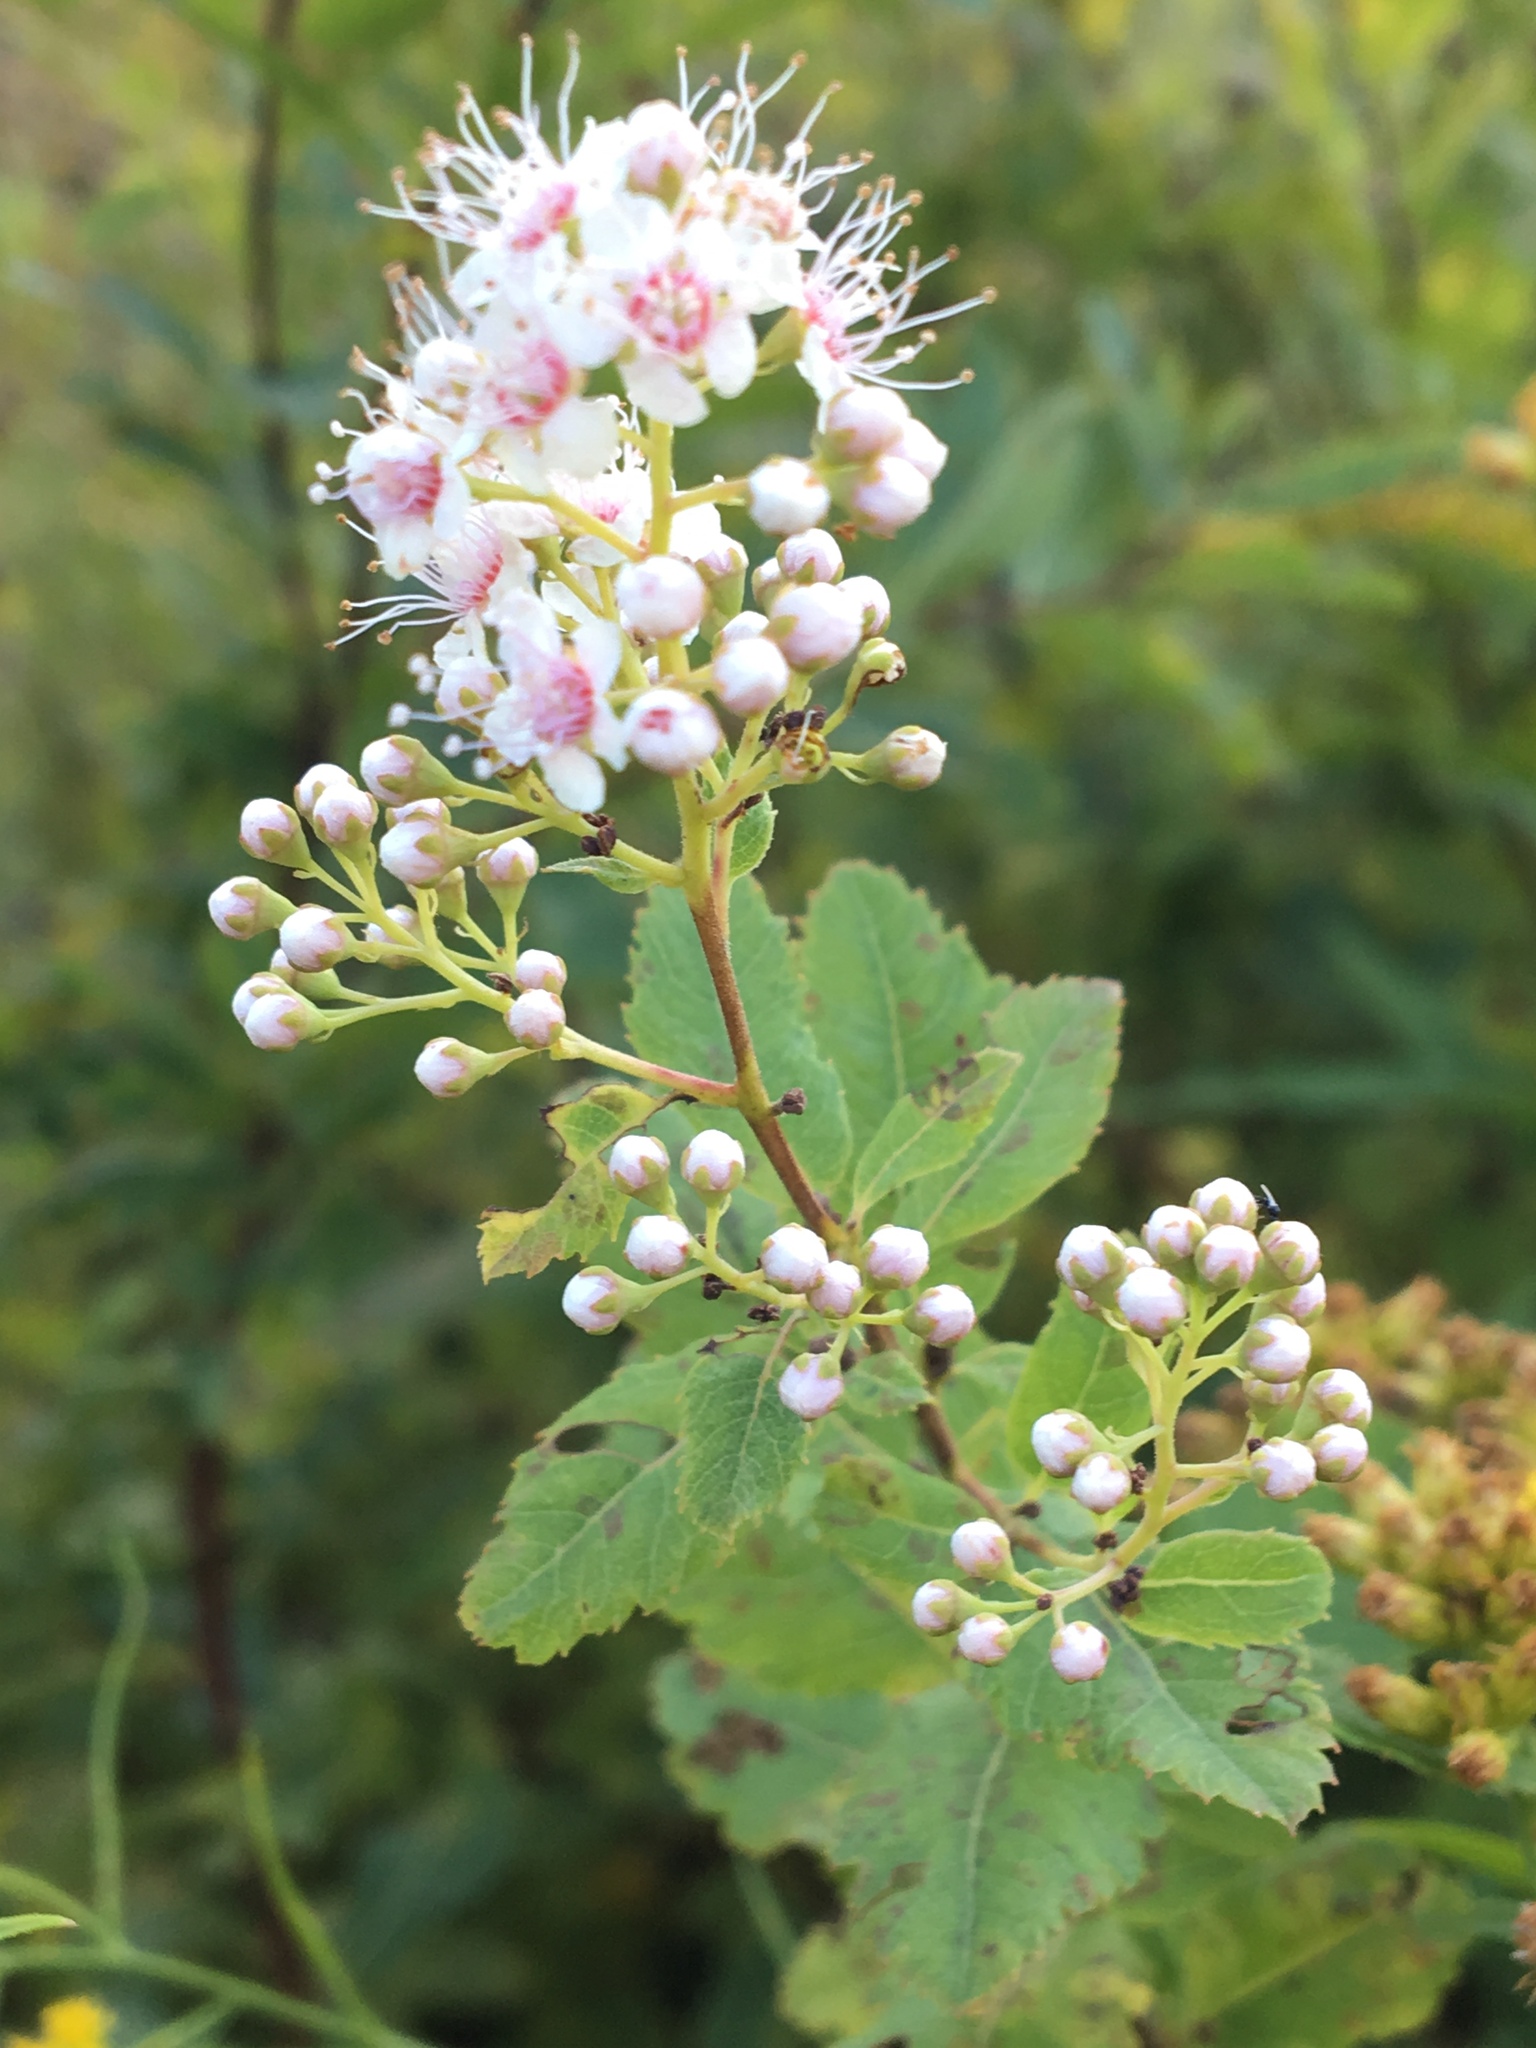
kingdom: Plantae
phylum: Tracheophyta
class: Magnoliopsida
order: Rosales
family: Rosaceae
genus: Spiraea
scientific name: Spiraea alba
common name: Pale bridewort
